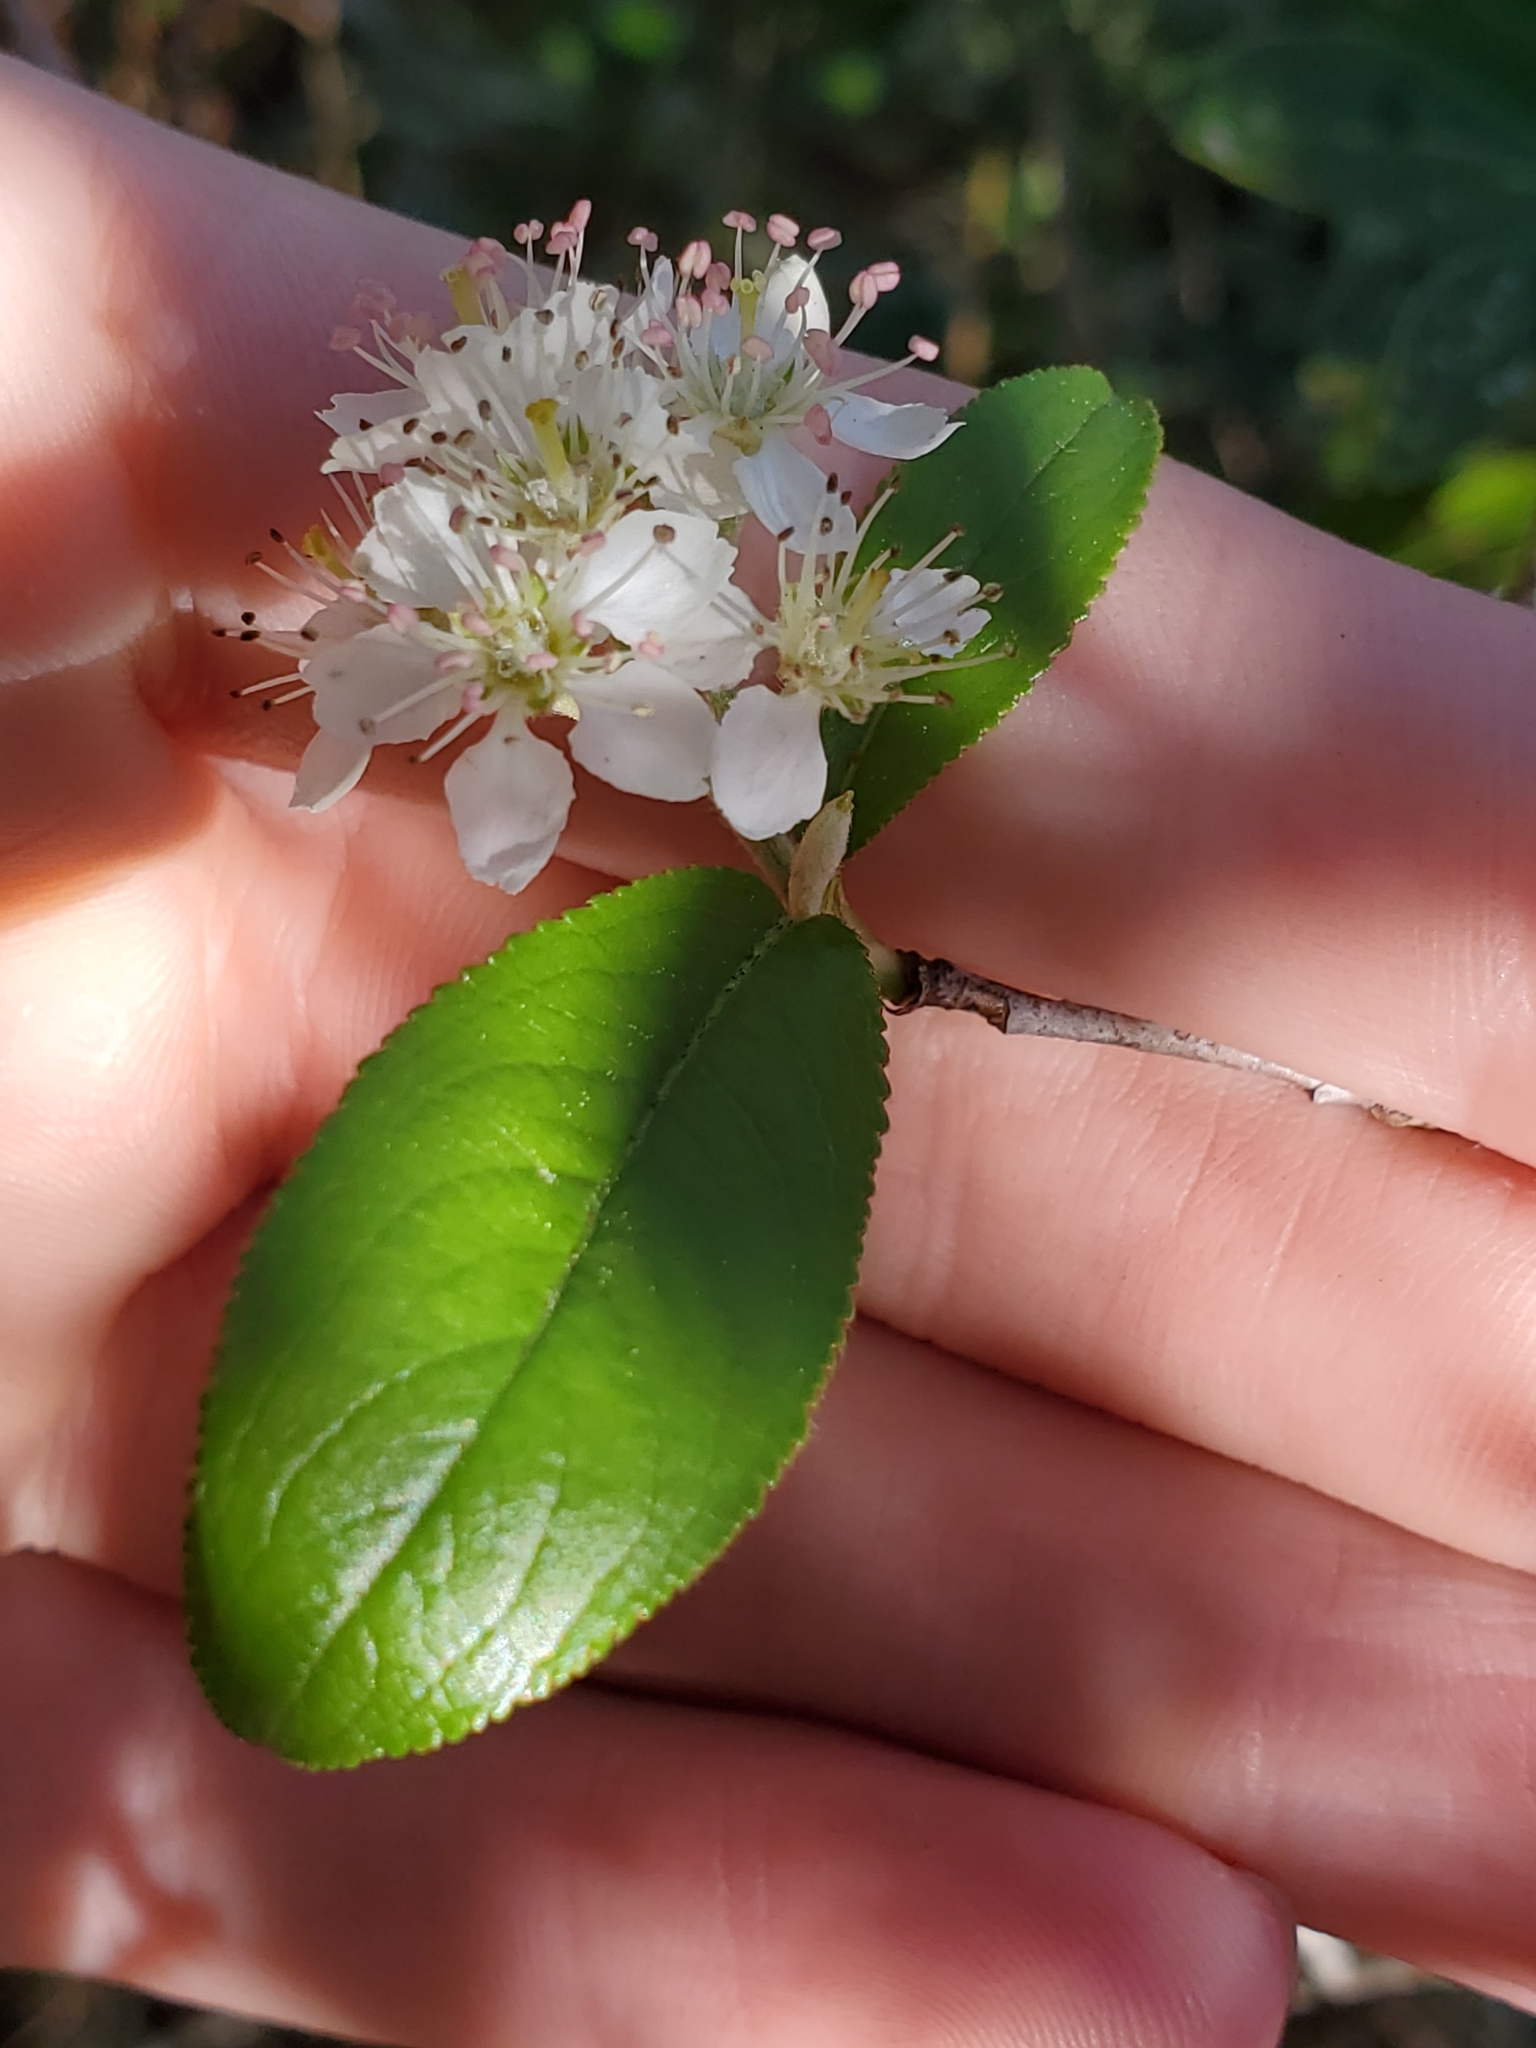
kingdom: Plantae
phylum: Tracheophyta
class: Magnoliopsida
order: Rosales
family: Rosaceae
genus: Aronia
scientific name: Aronia arbutifolia
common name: Red chokeberry
